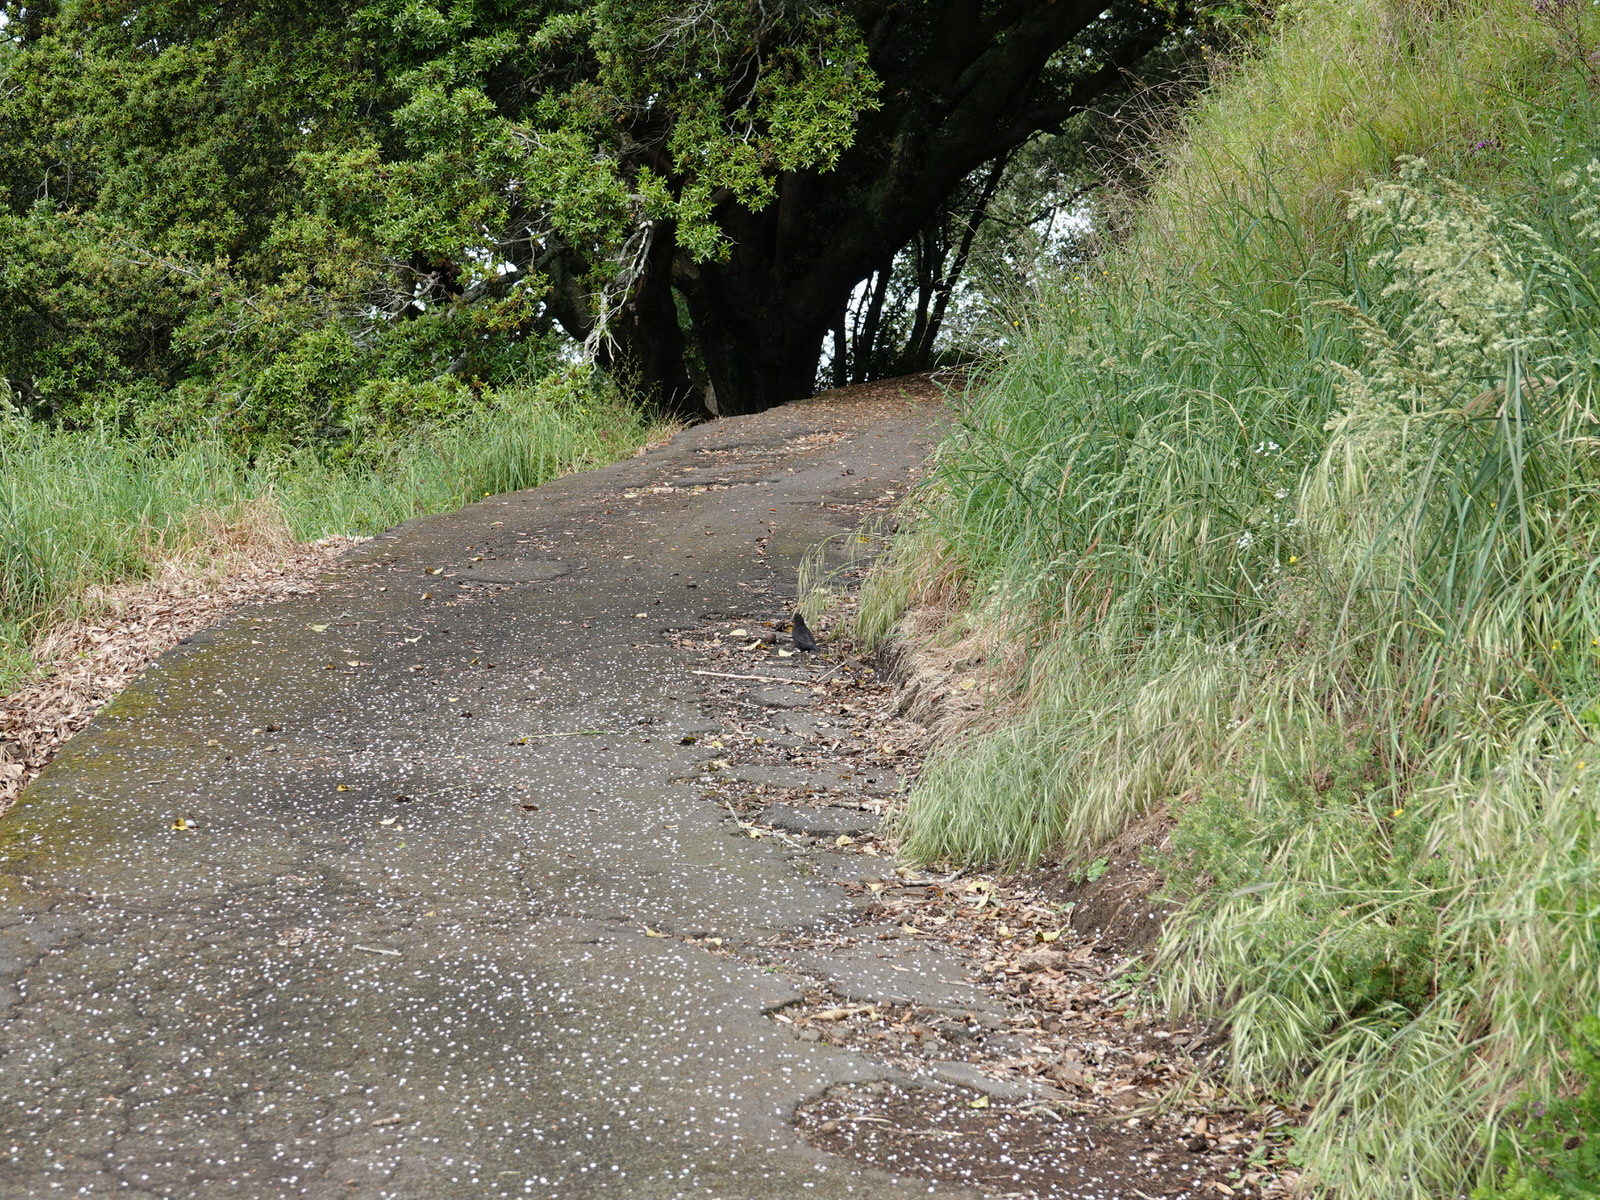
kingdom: Animalia
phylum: Chordata
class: Aves
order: Passeriformes
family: Turdidae
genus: Turdus
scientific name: Turdus merula
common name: Common blackbird
